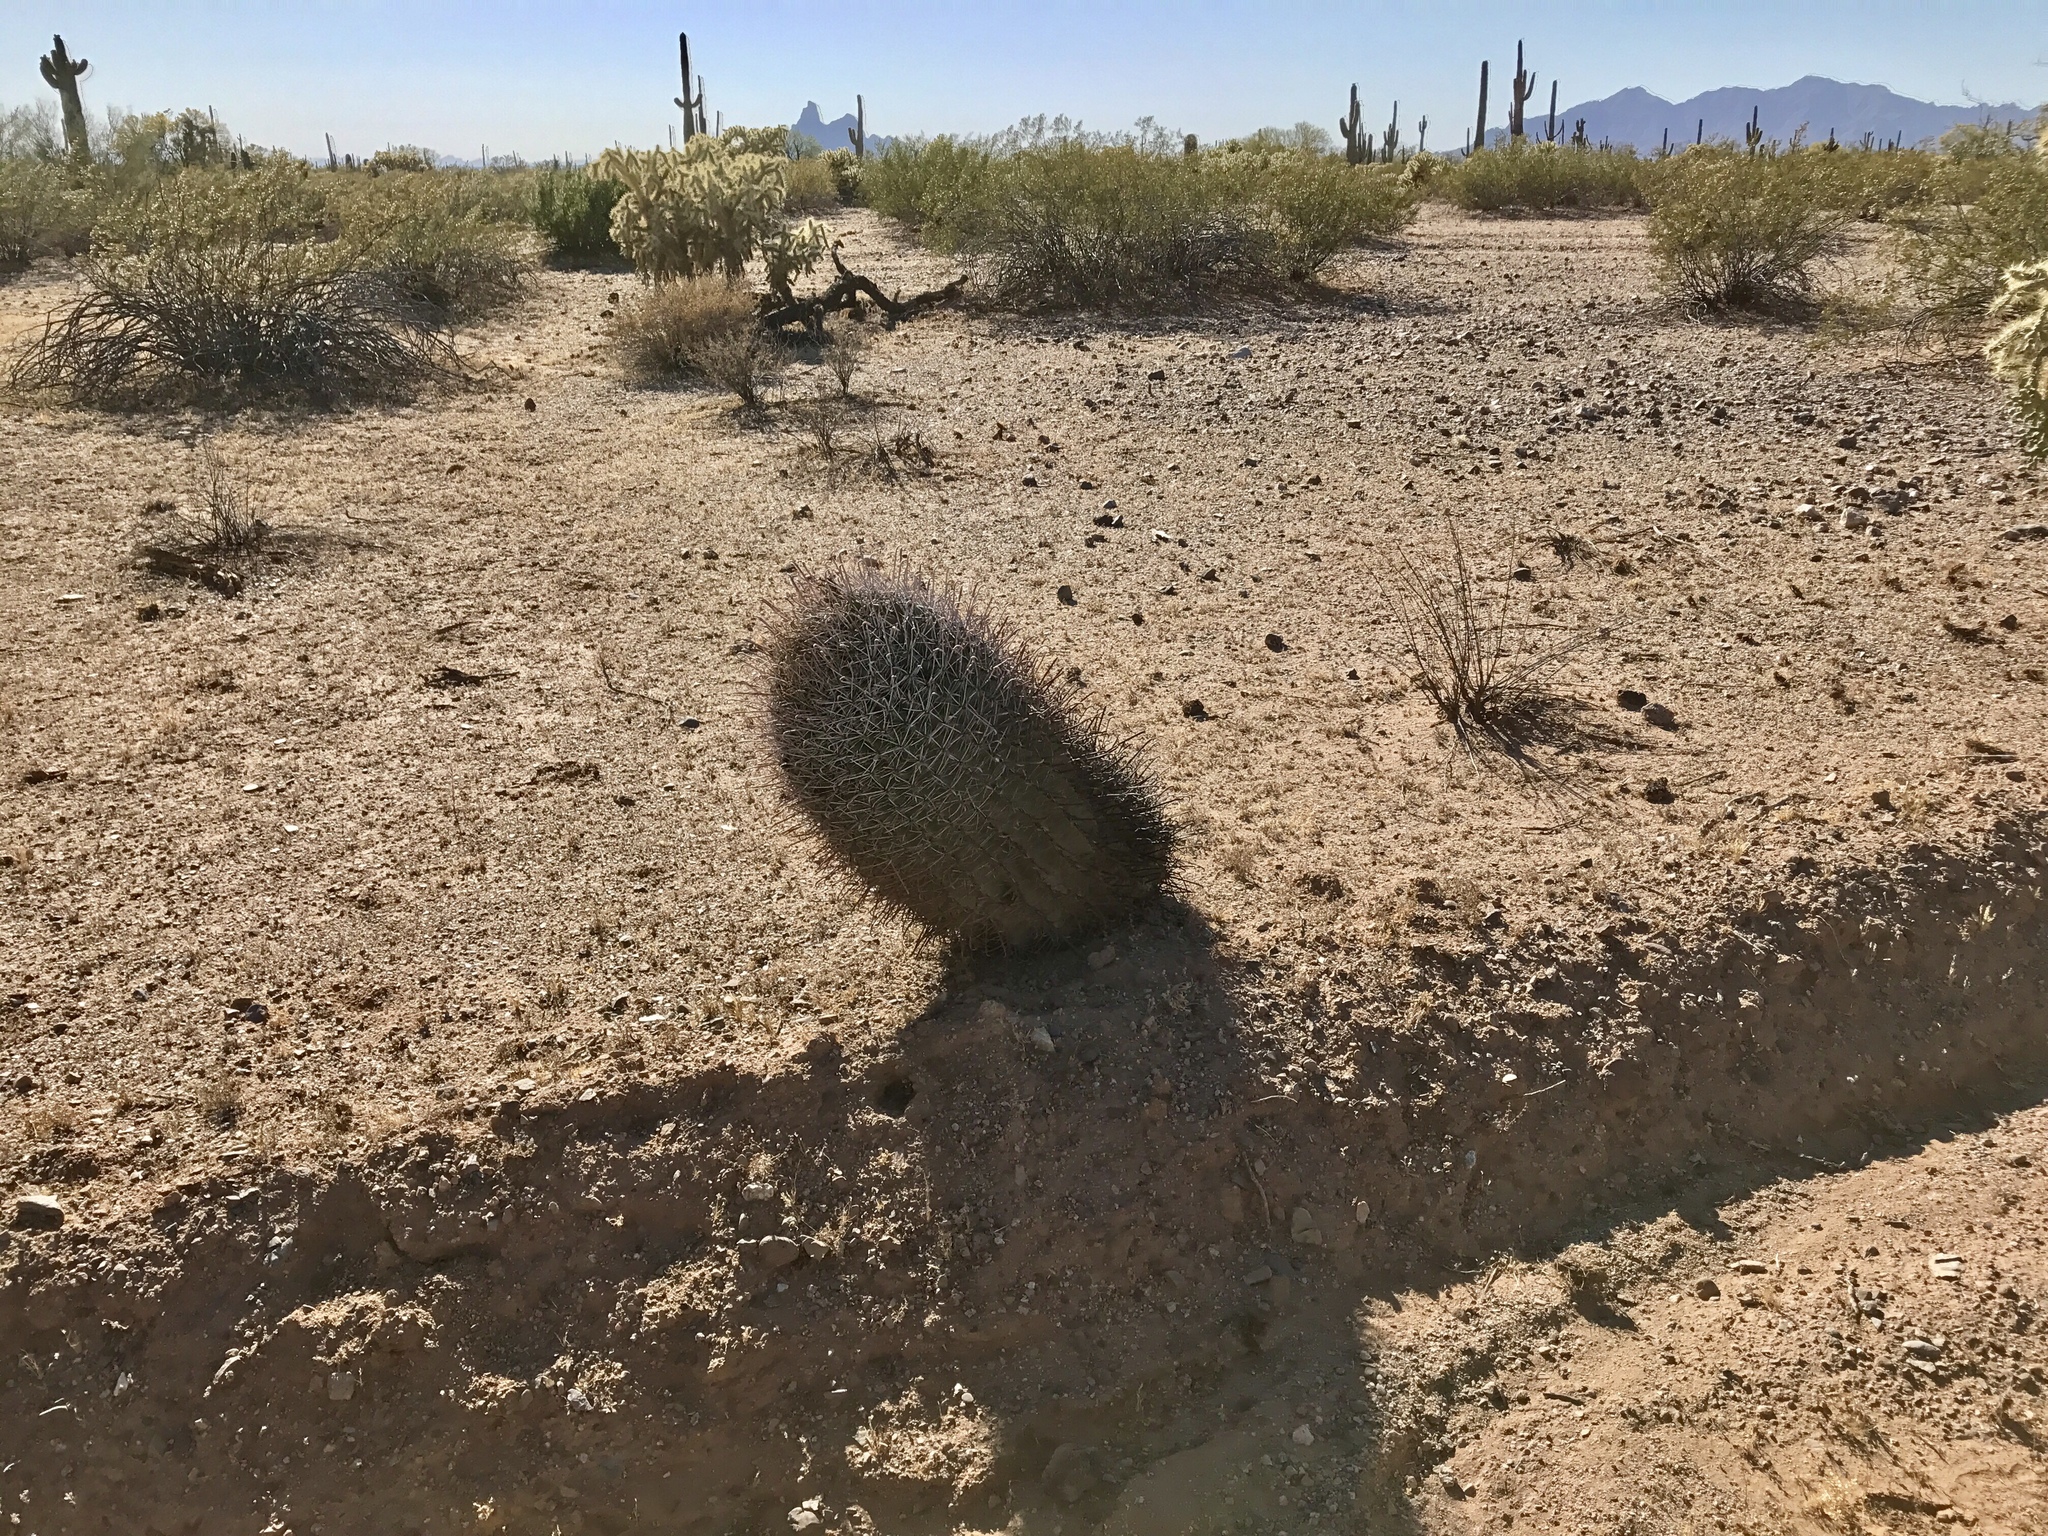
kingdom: Plantae
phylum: Tracheophyta
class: Magnoliopsida
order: Caryophyllales
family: Cactaceae
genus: Ferocactus
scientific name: Ferocactus wislizeni
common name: Candy barrel cactus
